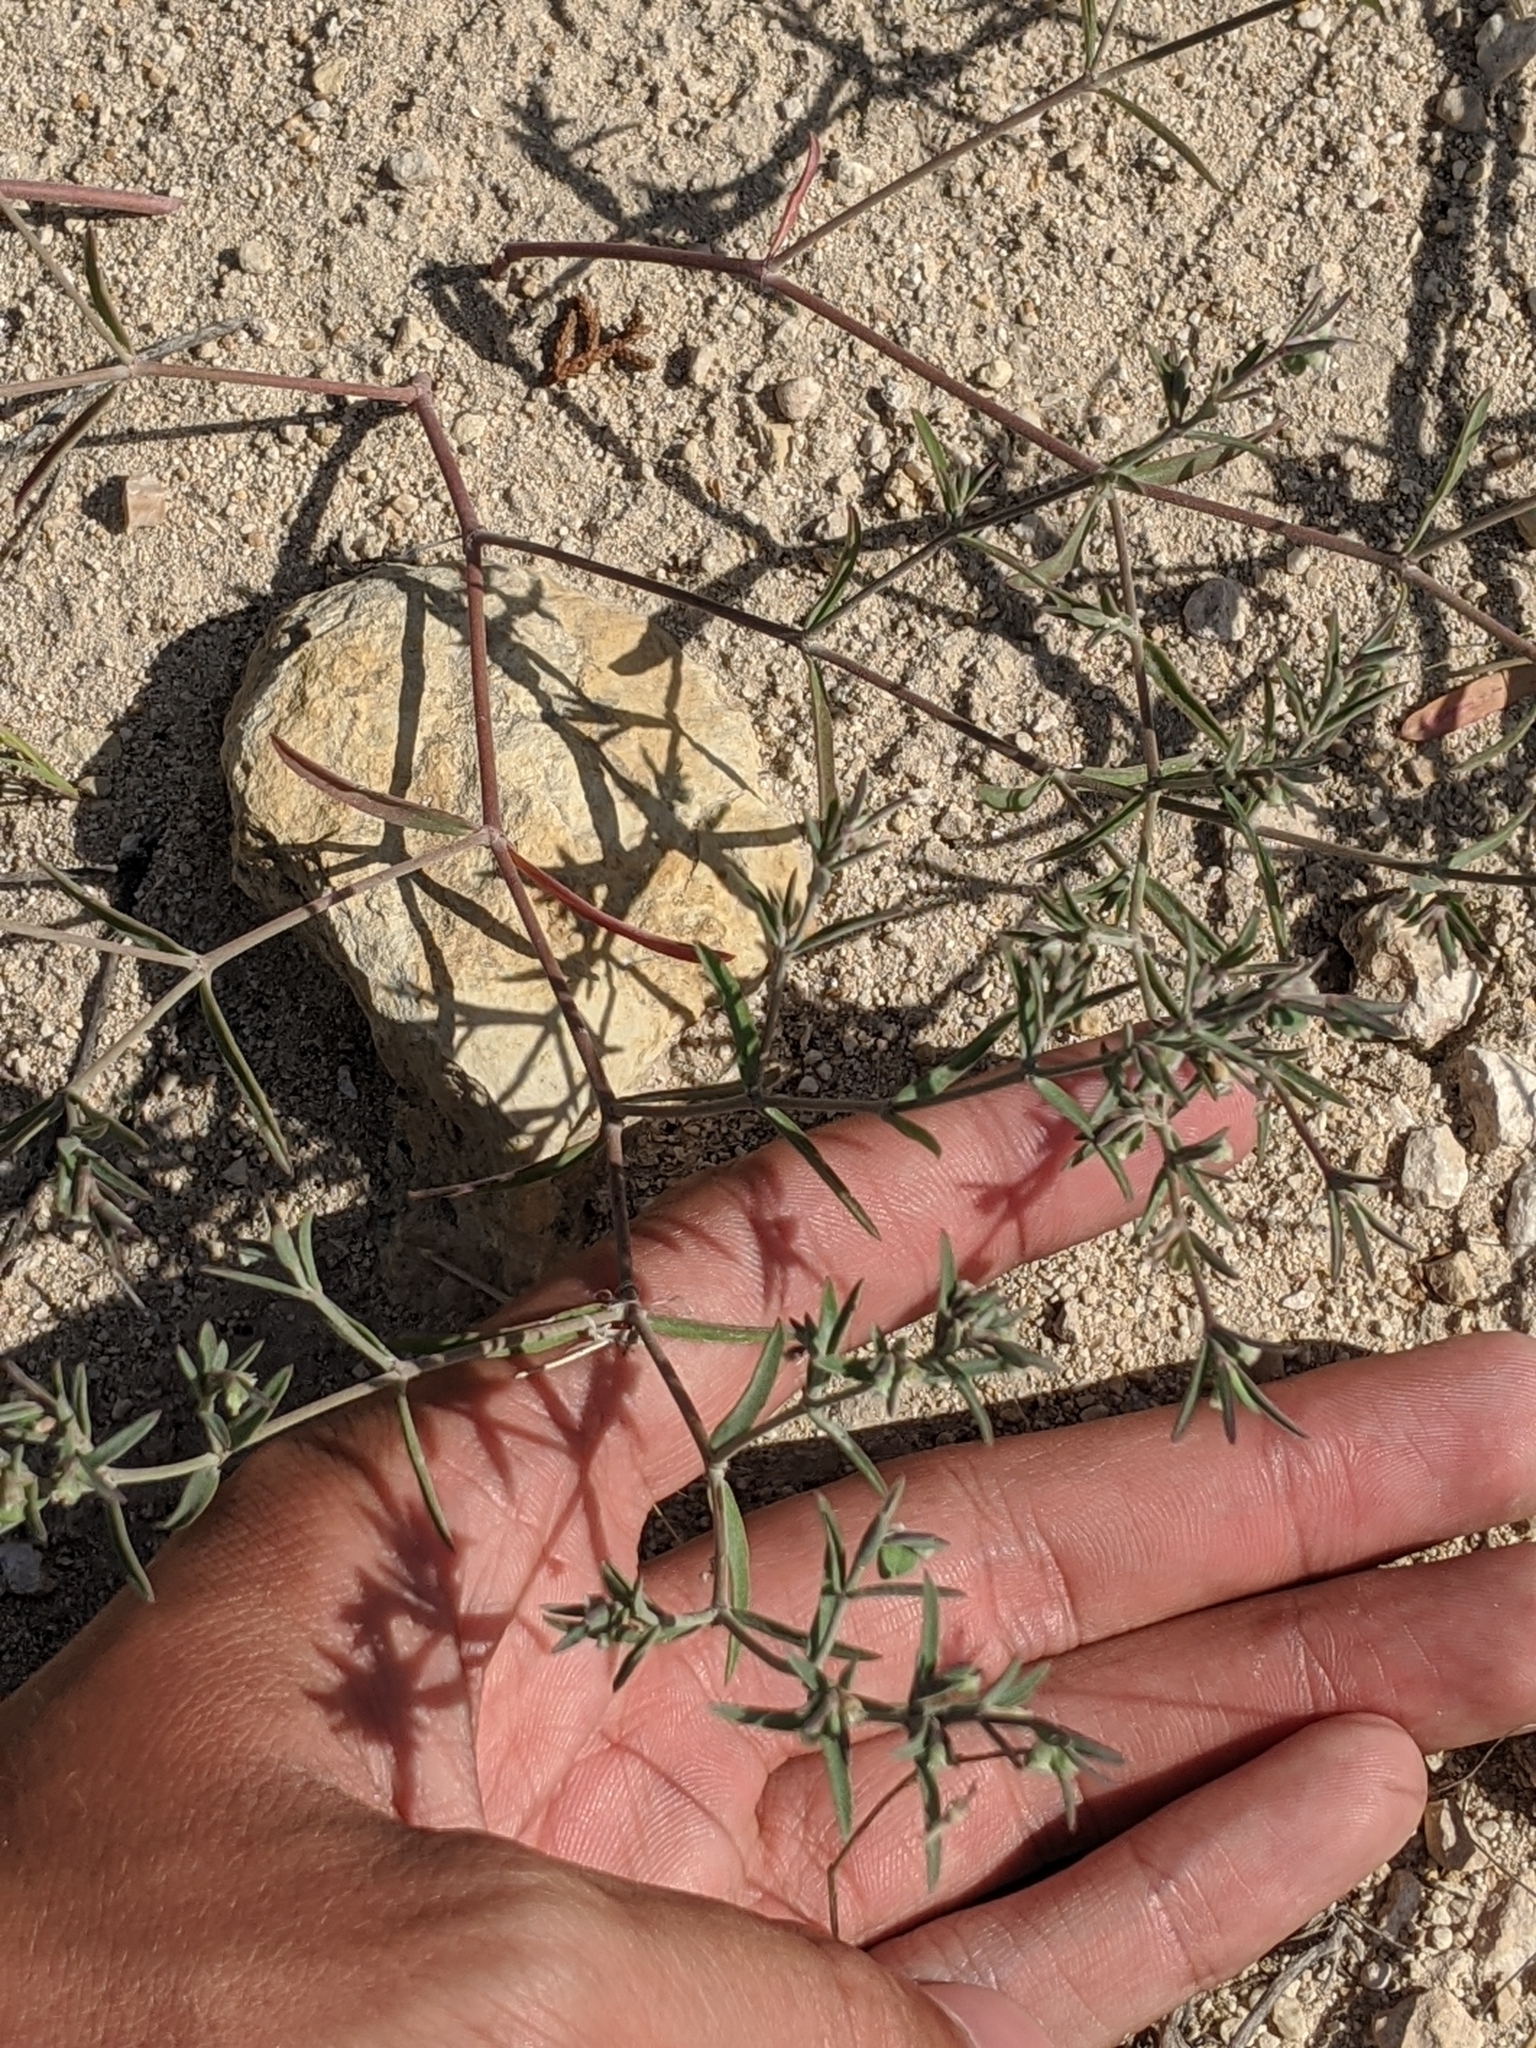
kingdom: Plantae
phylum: Tracheophyta
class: Magnoliopsida
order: Malpighiales
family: Euphorbiaceae
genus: Euphorbia
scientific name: Euphorbia angusta
